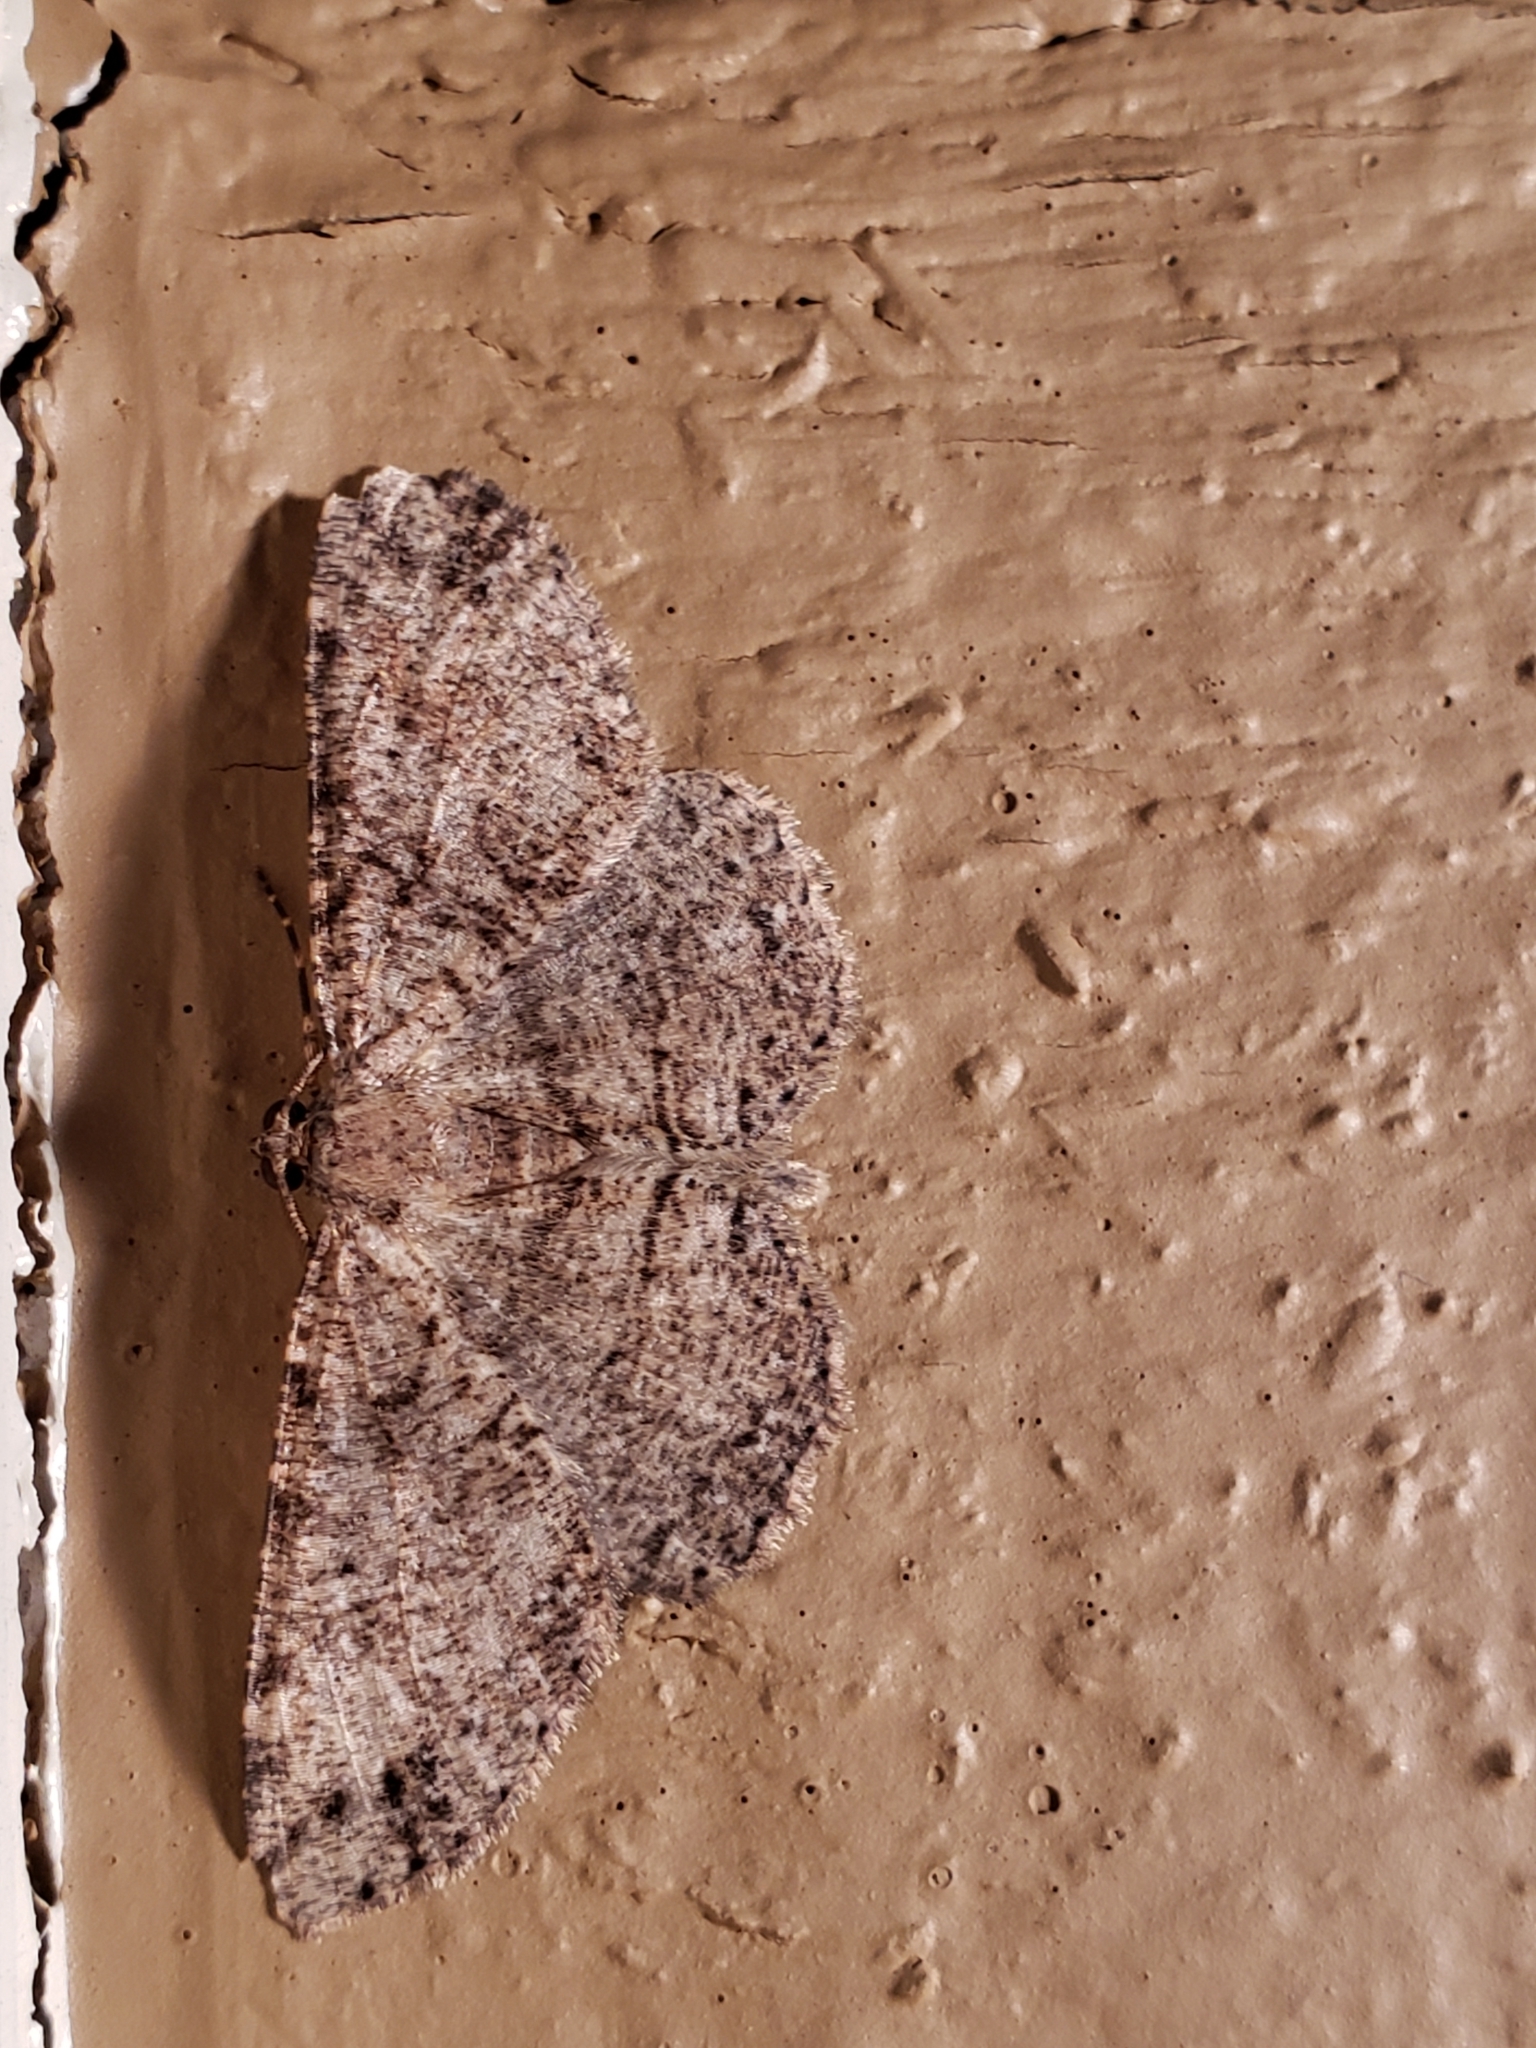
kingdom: Animalia
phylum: Arthropoda
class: Insecta
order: Lepidoptera
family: Geometridae
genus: Melanolophia
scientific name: Melanolophia canadaria
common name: Canadian melanolophia
